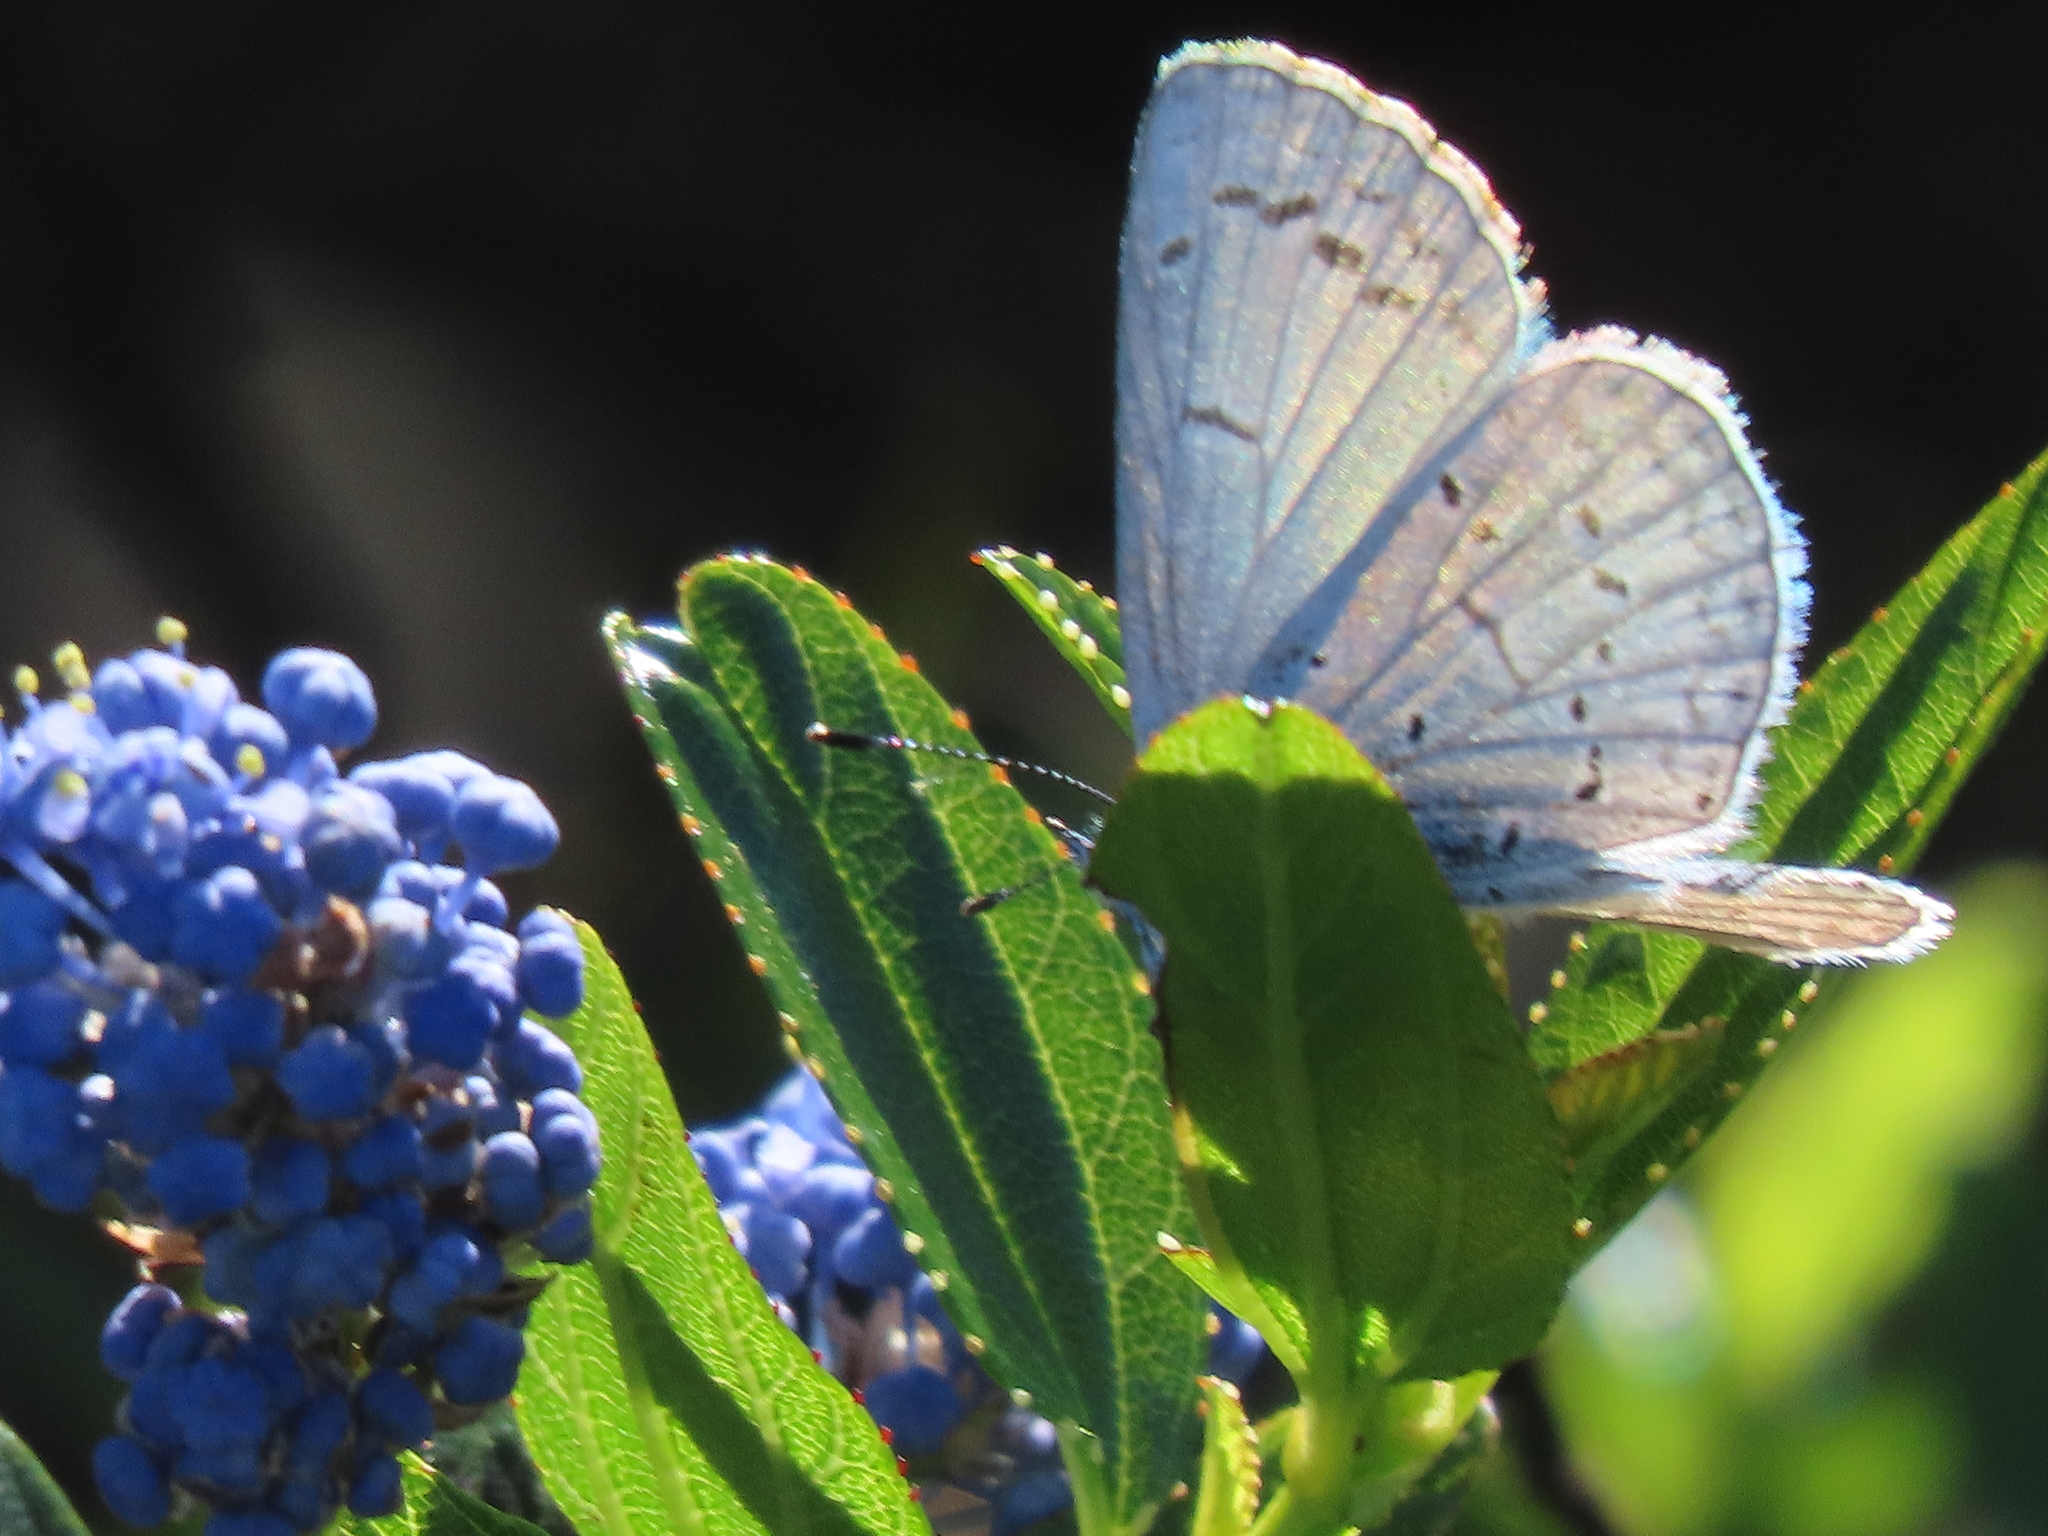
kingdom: Animalia
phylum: Arthropoda
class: Insecta
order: Lepidoptera
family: Lycaenidae
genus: Celastrina
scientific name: Celastrina ladon
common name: Spring azure
